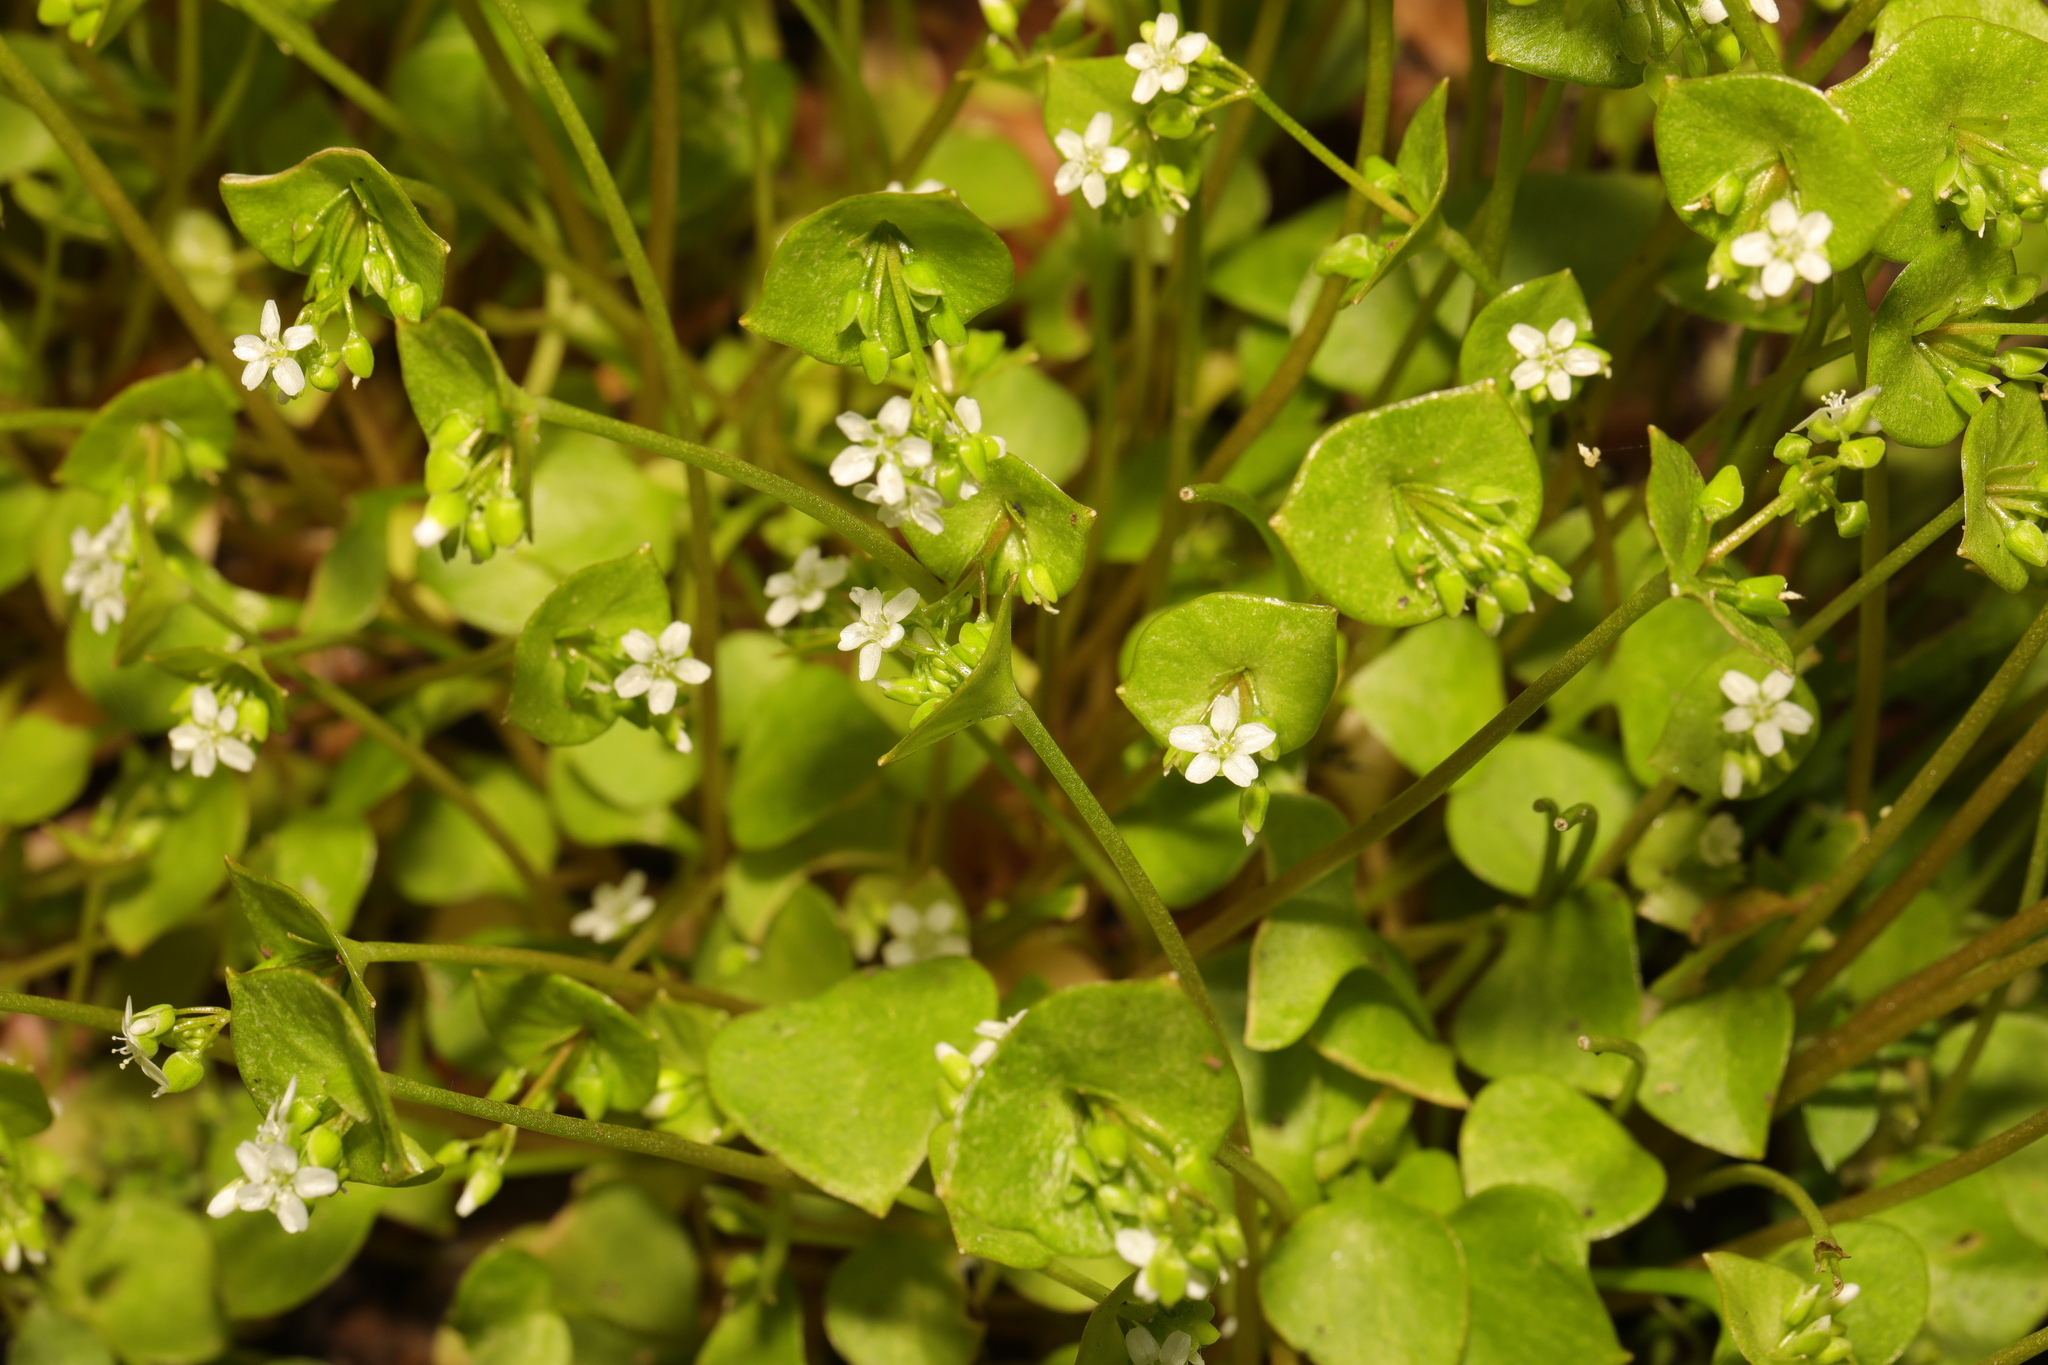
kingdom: Plantae
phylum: Tracheophyta
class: Magnoliopsida
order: Caryophyllales
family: Montiaceae
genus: Claytonia
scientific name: Claytonia perfoliata
